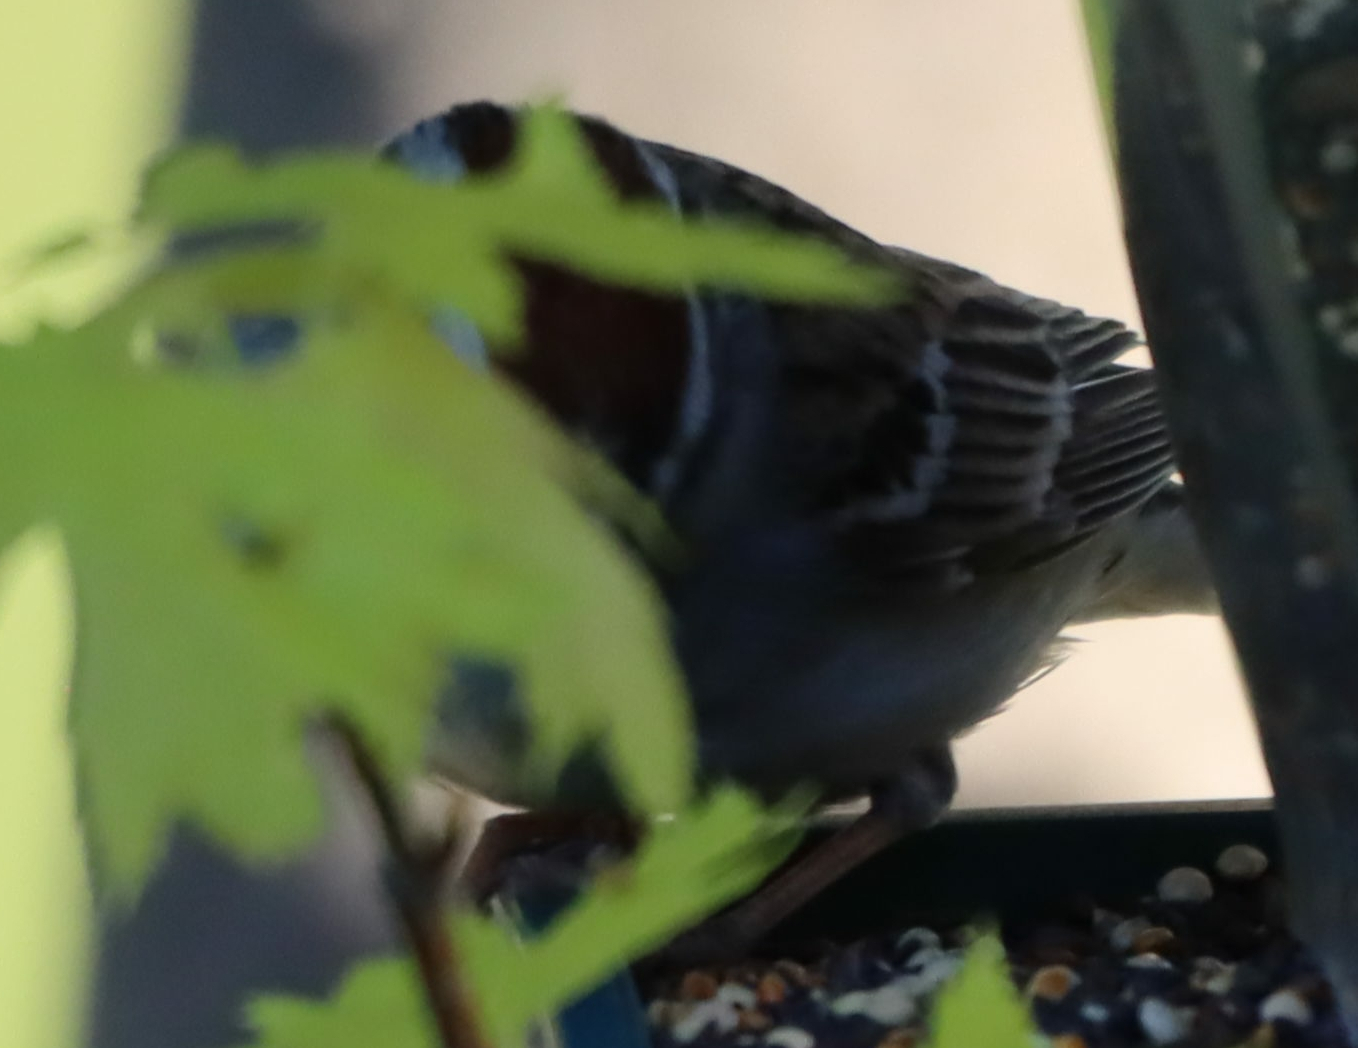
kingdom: Animalia
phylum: Chordata
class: Aves
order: Passeriformes
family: Passerellidae
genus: Spizella
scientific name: Spizella passerina
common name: Chipping sparrow
